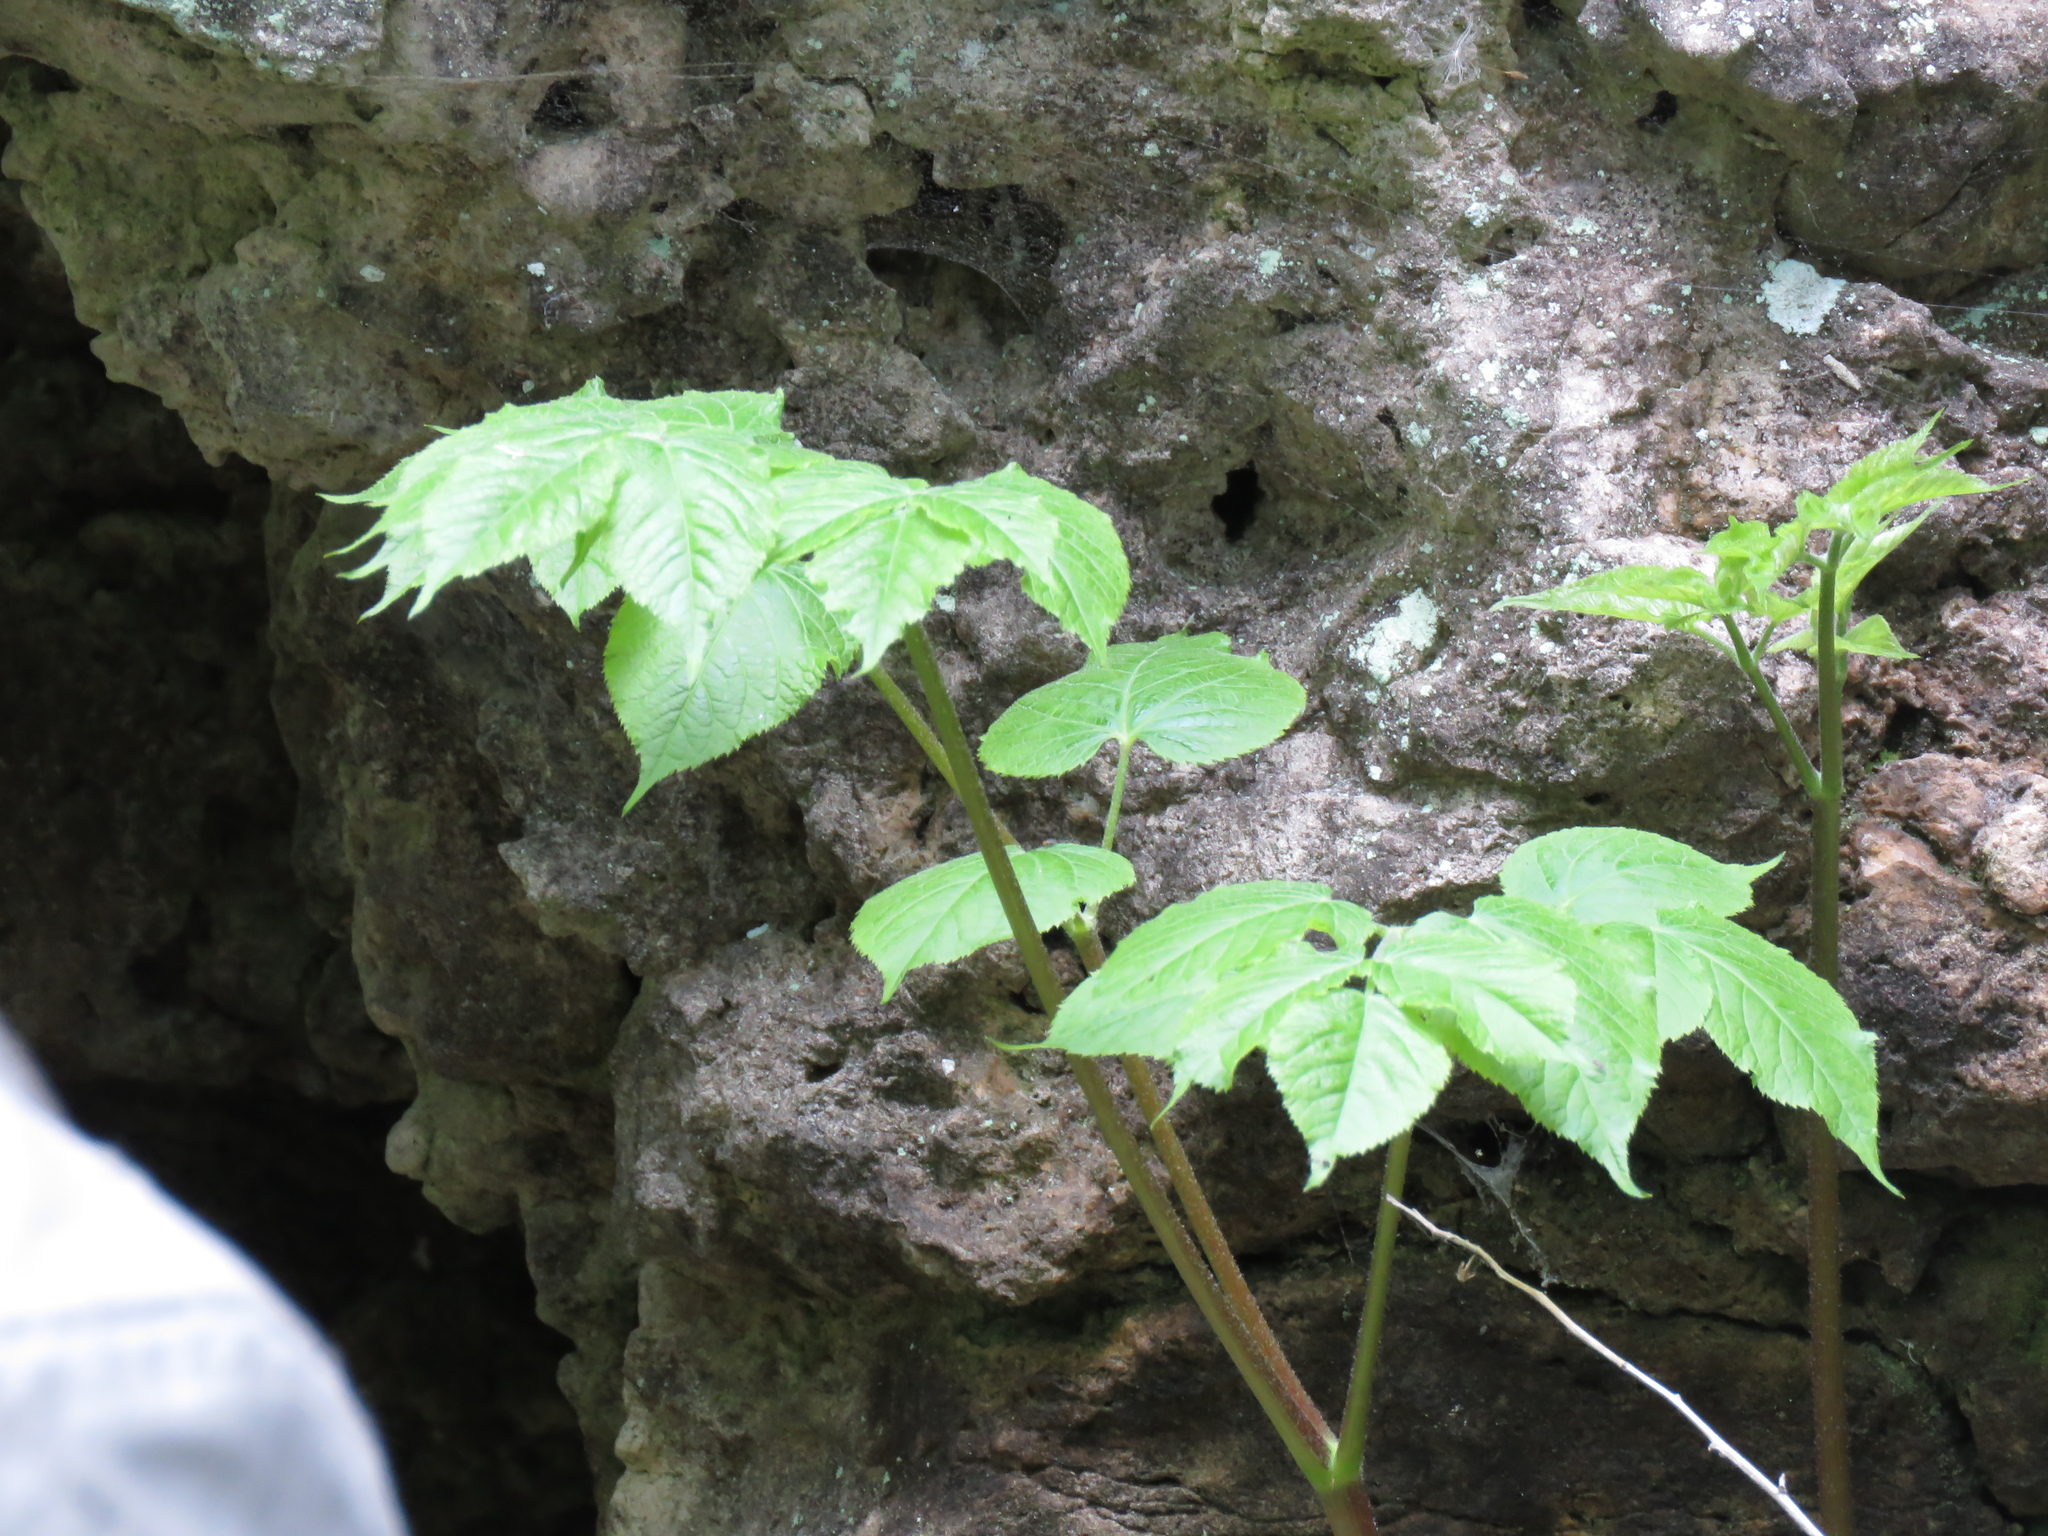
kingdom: Plantae
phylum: Tracheophyta
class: Magnoliopsida
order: Apiales
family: Araliaceae
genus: Aralia
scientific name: Aralia racemosa
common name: American-spikenard
